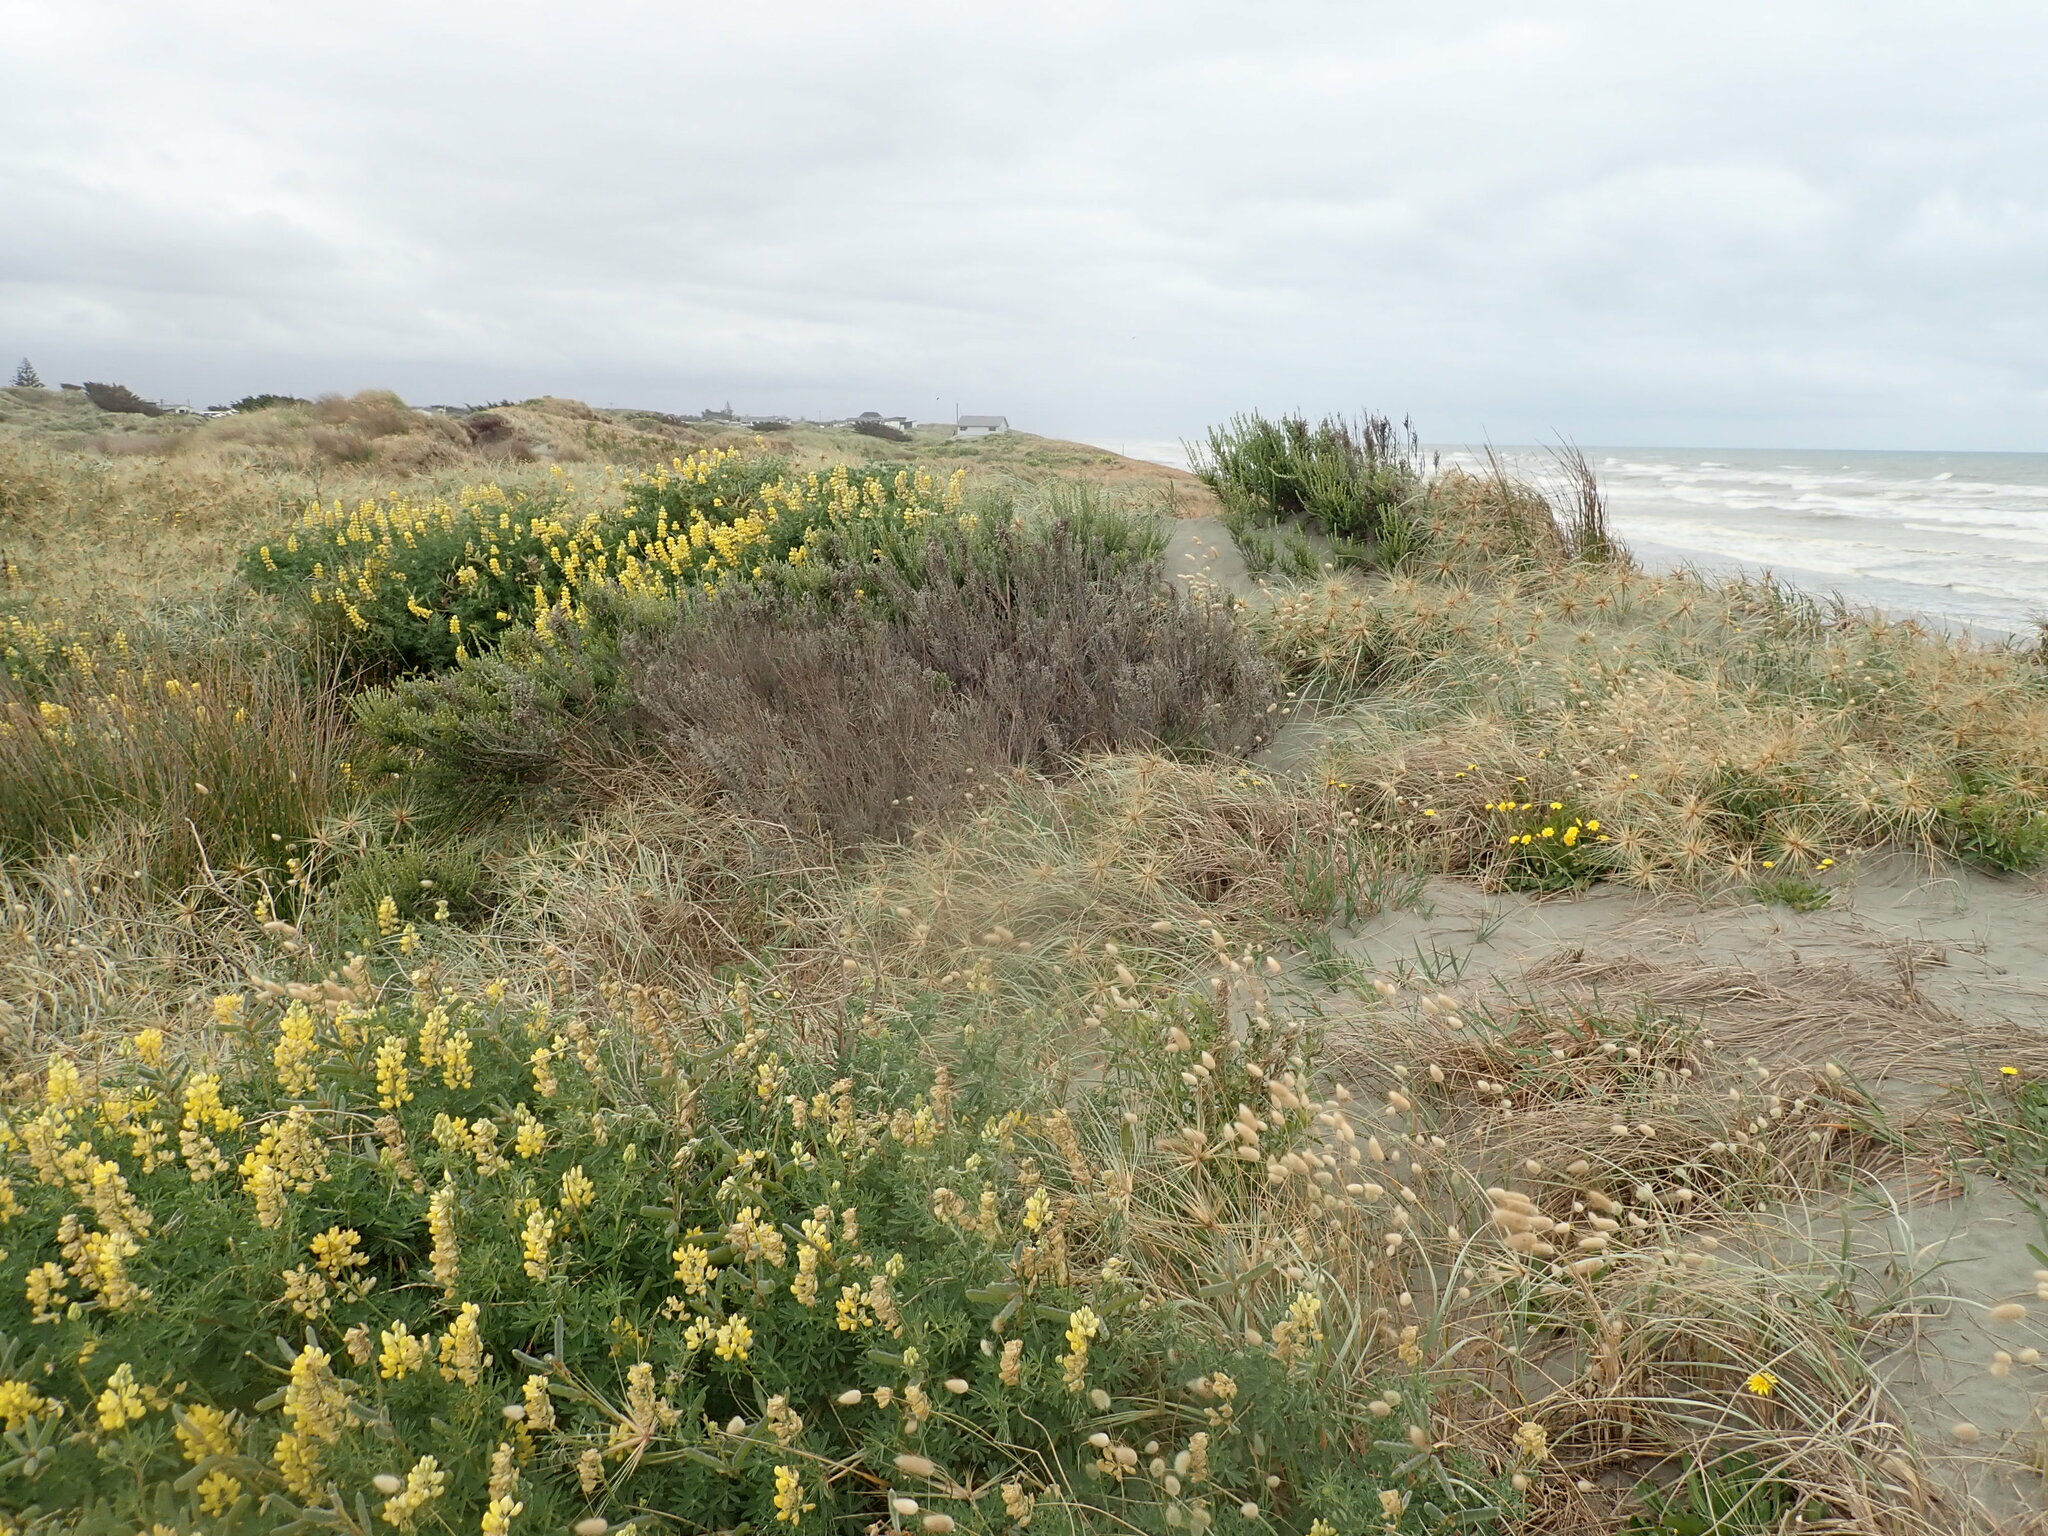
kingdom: Plantae
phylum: Tracheophyta
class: Magnoliopsida
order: Asterales
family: Asteraceae
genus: Ozothamnus
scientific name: Ozothamnus leptophyllus
